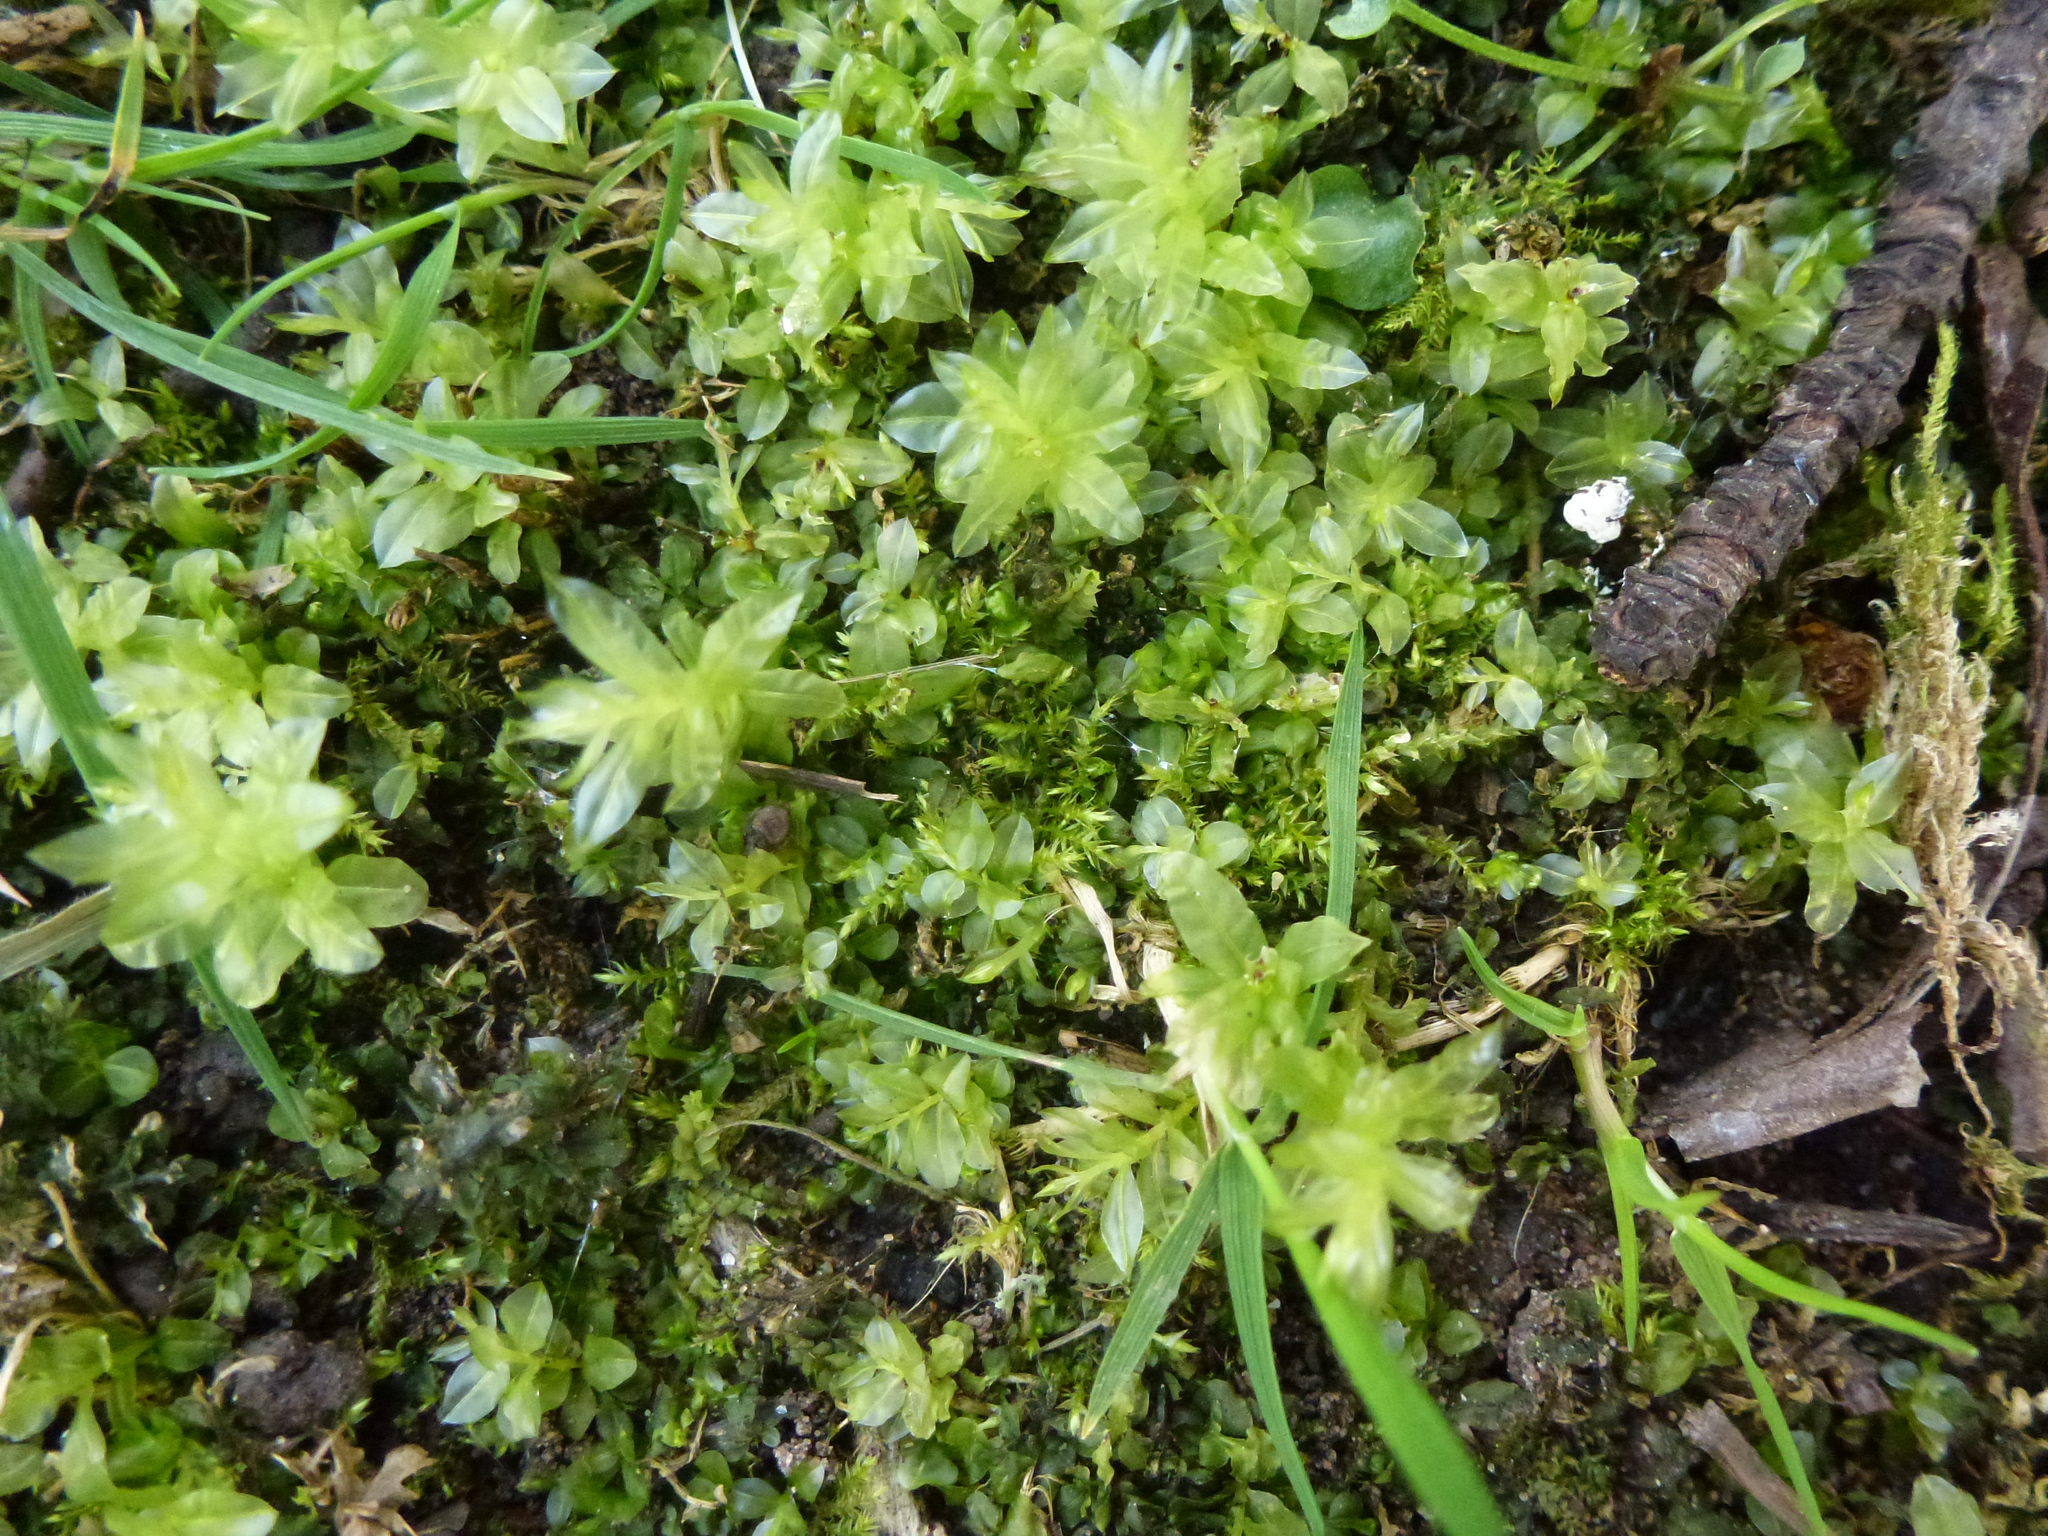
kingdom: Plantae
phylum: Bryophyta
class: Bryopsida
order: Bryales
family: Mniaceae
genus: Plagiomnium
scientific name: Plagiomnium undulatum
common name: Hart's-tongue thyme-moss
